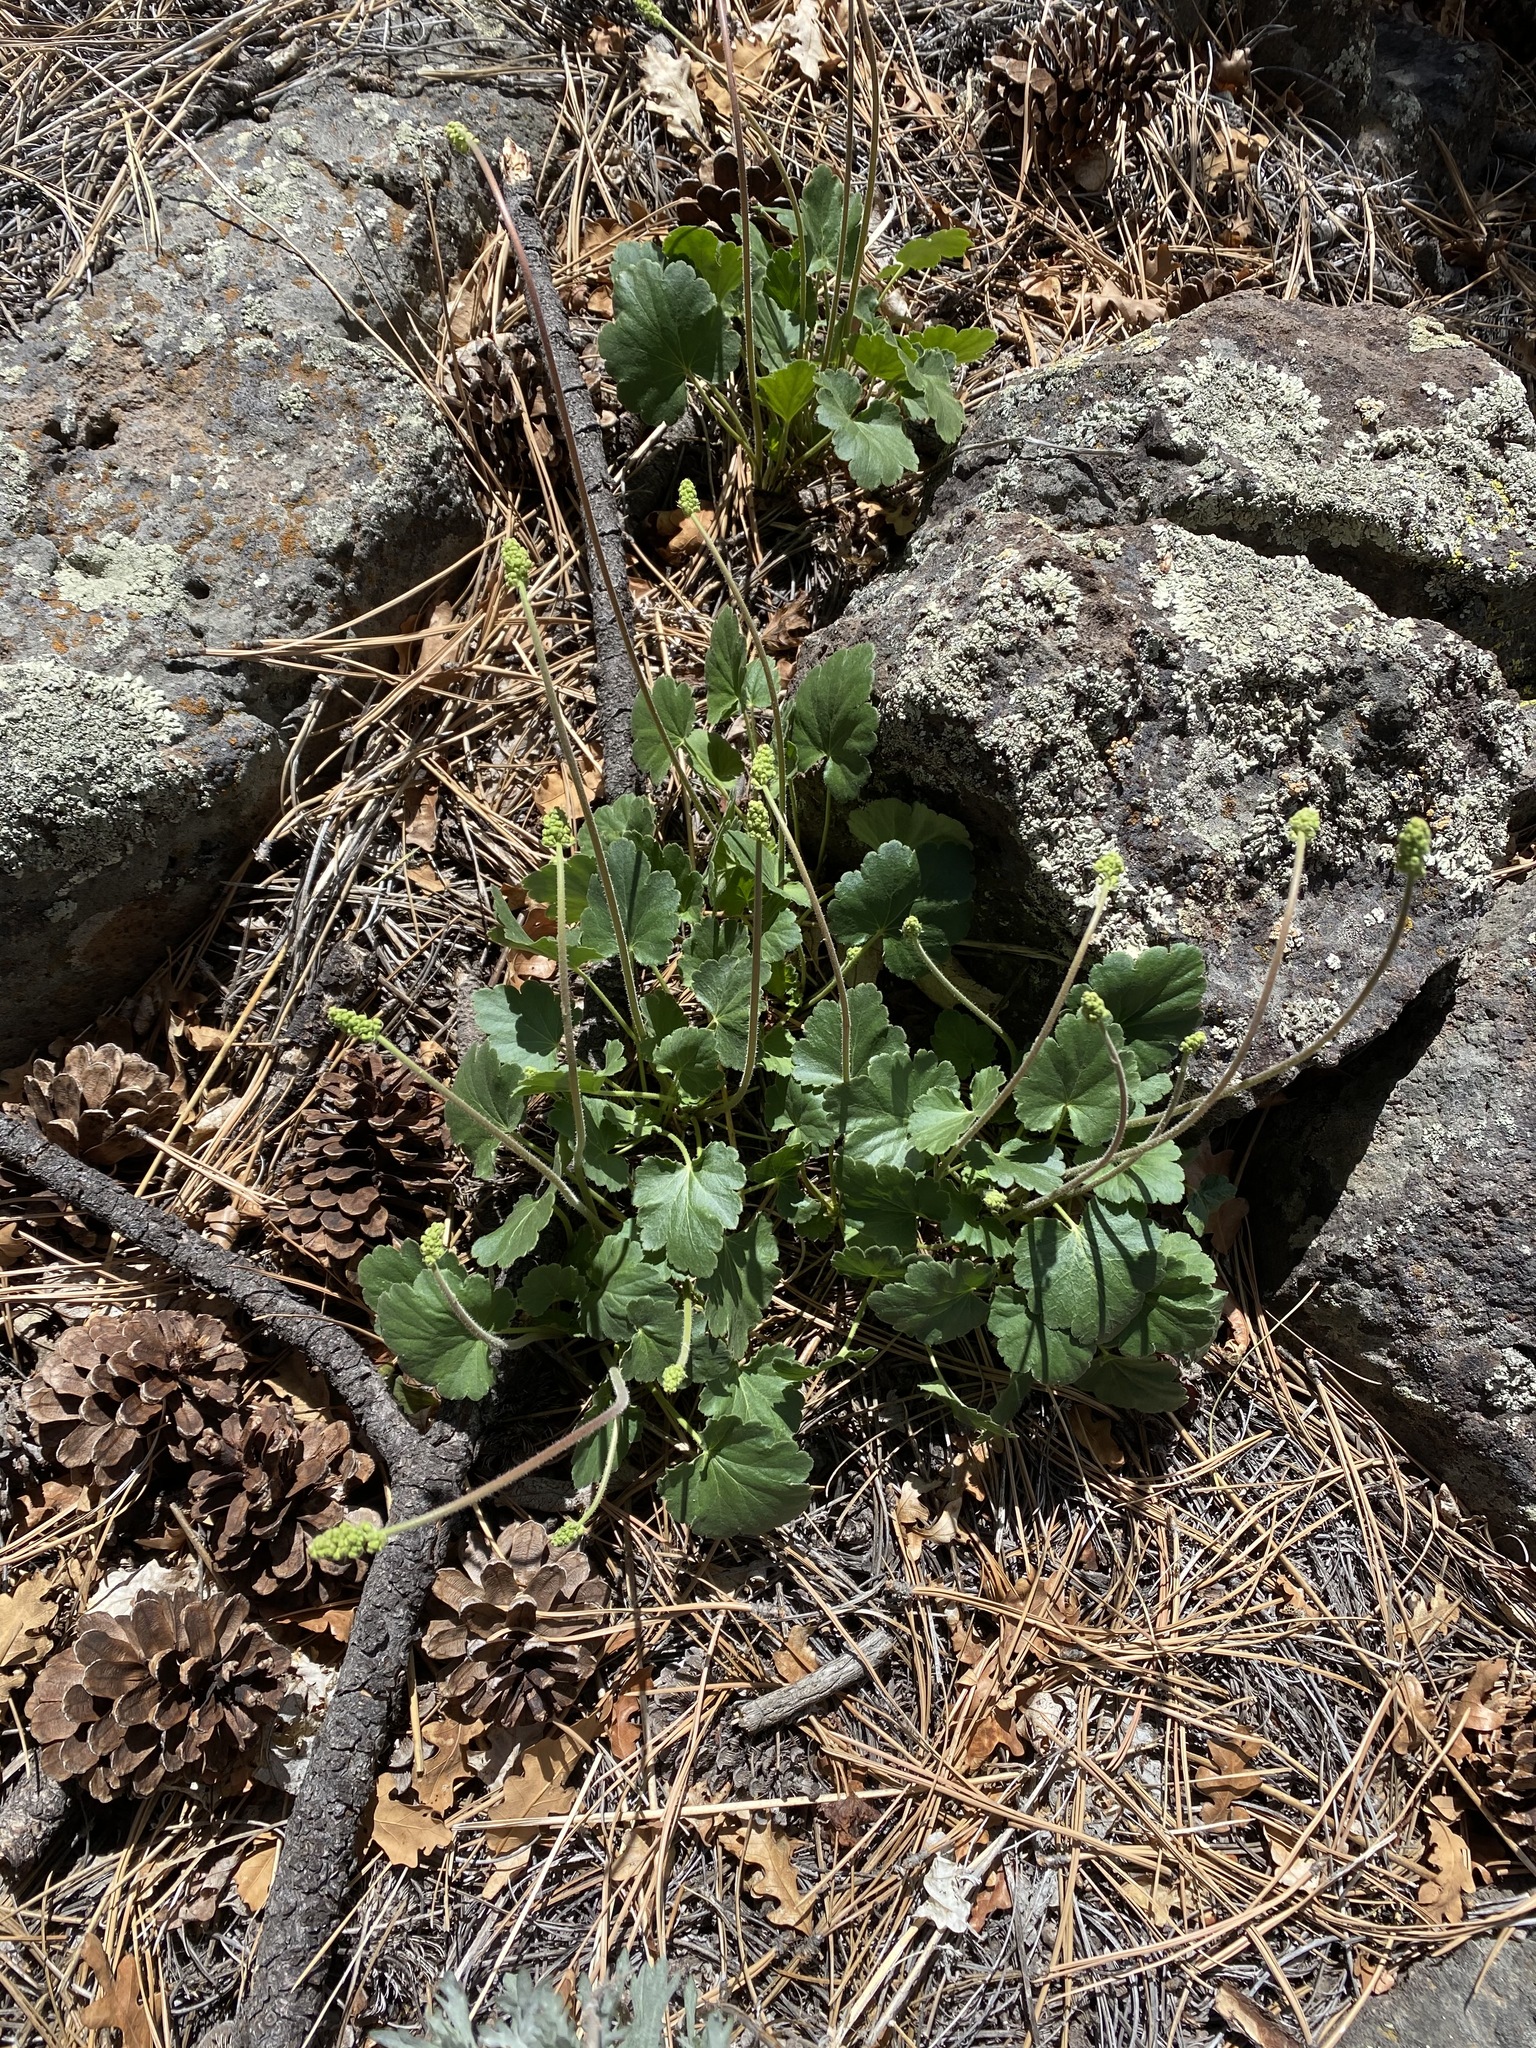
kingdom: Plantae
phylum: Tracheophyta
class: Magnoliopsida
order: Saxifragales
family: Saxifragaceae
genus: Heuchera
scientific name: Heuchera parvifolia
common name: Common alumroot
